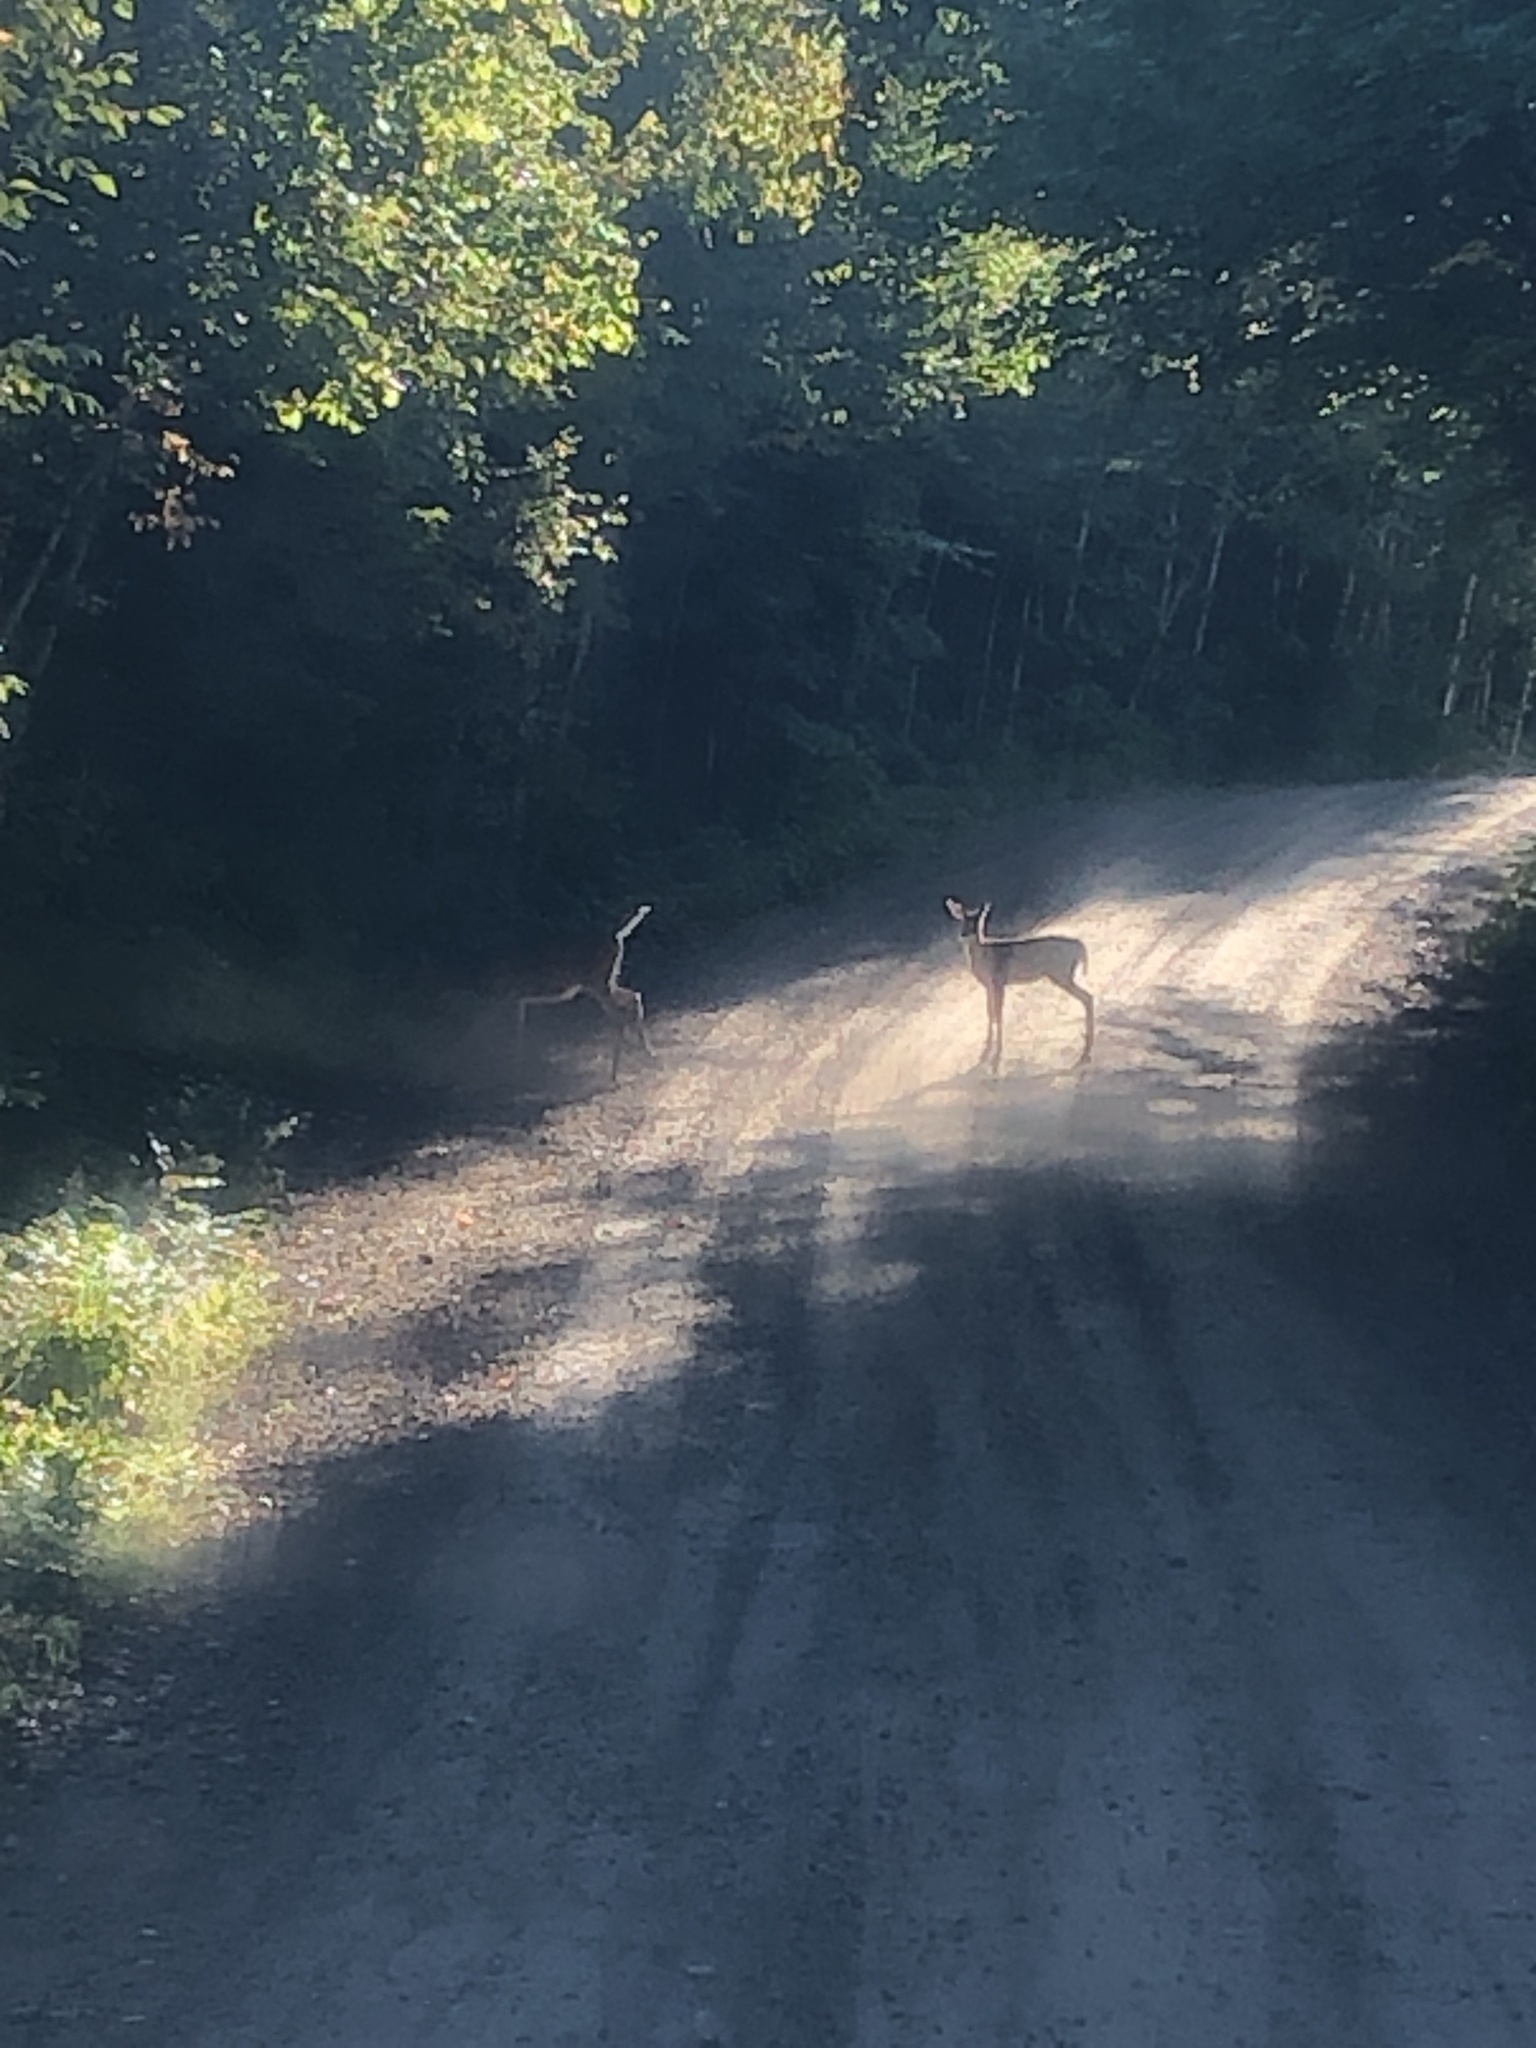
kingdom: Animalia
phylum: Chordata
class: Mammalia
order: Artiodactyla
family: Cervidae
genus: Odocoileus
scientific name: Odocoileus virginianus
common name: White-tailed deer
